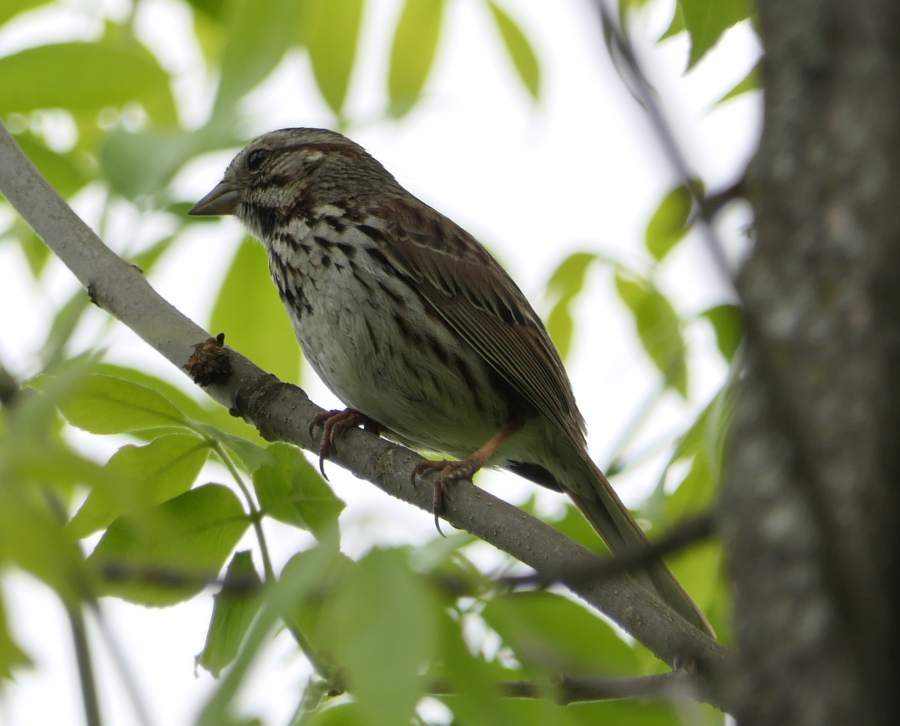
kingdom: Animalia
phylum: Chordata
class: Aves
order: Passeriformes
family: Passerellidae
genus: Melospiza
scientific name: Melospiza melodia
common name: Song sparrow
